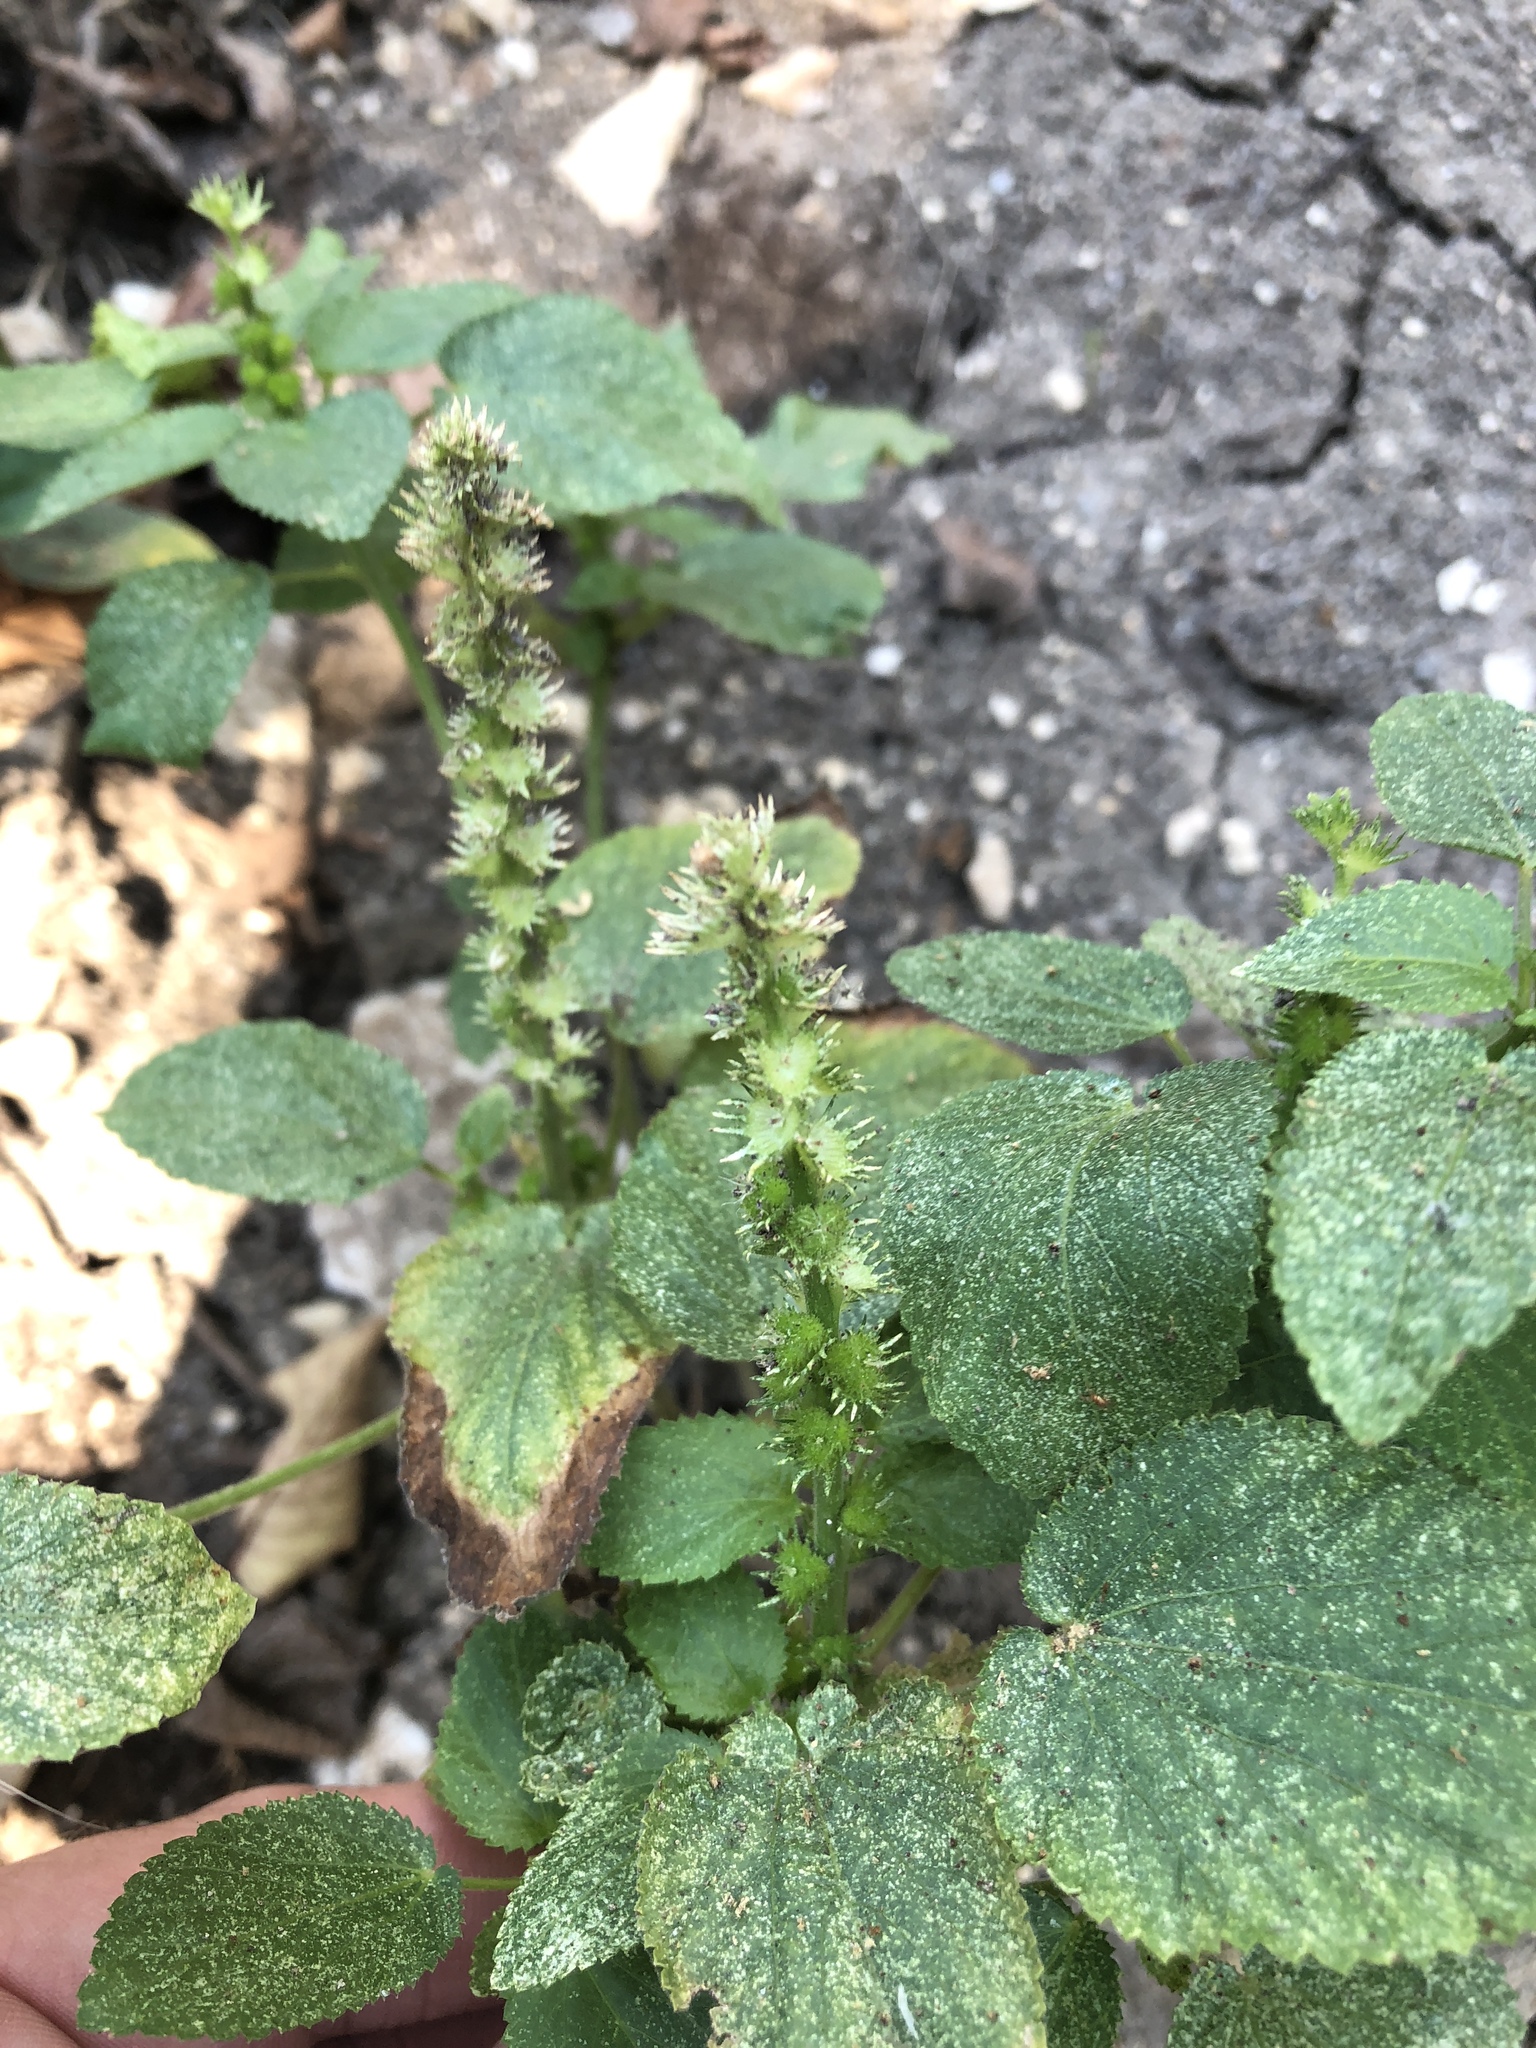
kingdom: Plantae
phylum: Tracheophyta
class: Magnoliopsida
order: Malpighiales
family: Euphorbiaceae
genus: Acalypha
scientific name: Acalypha ostryifolia
